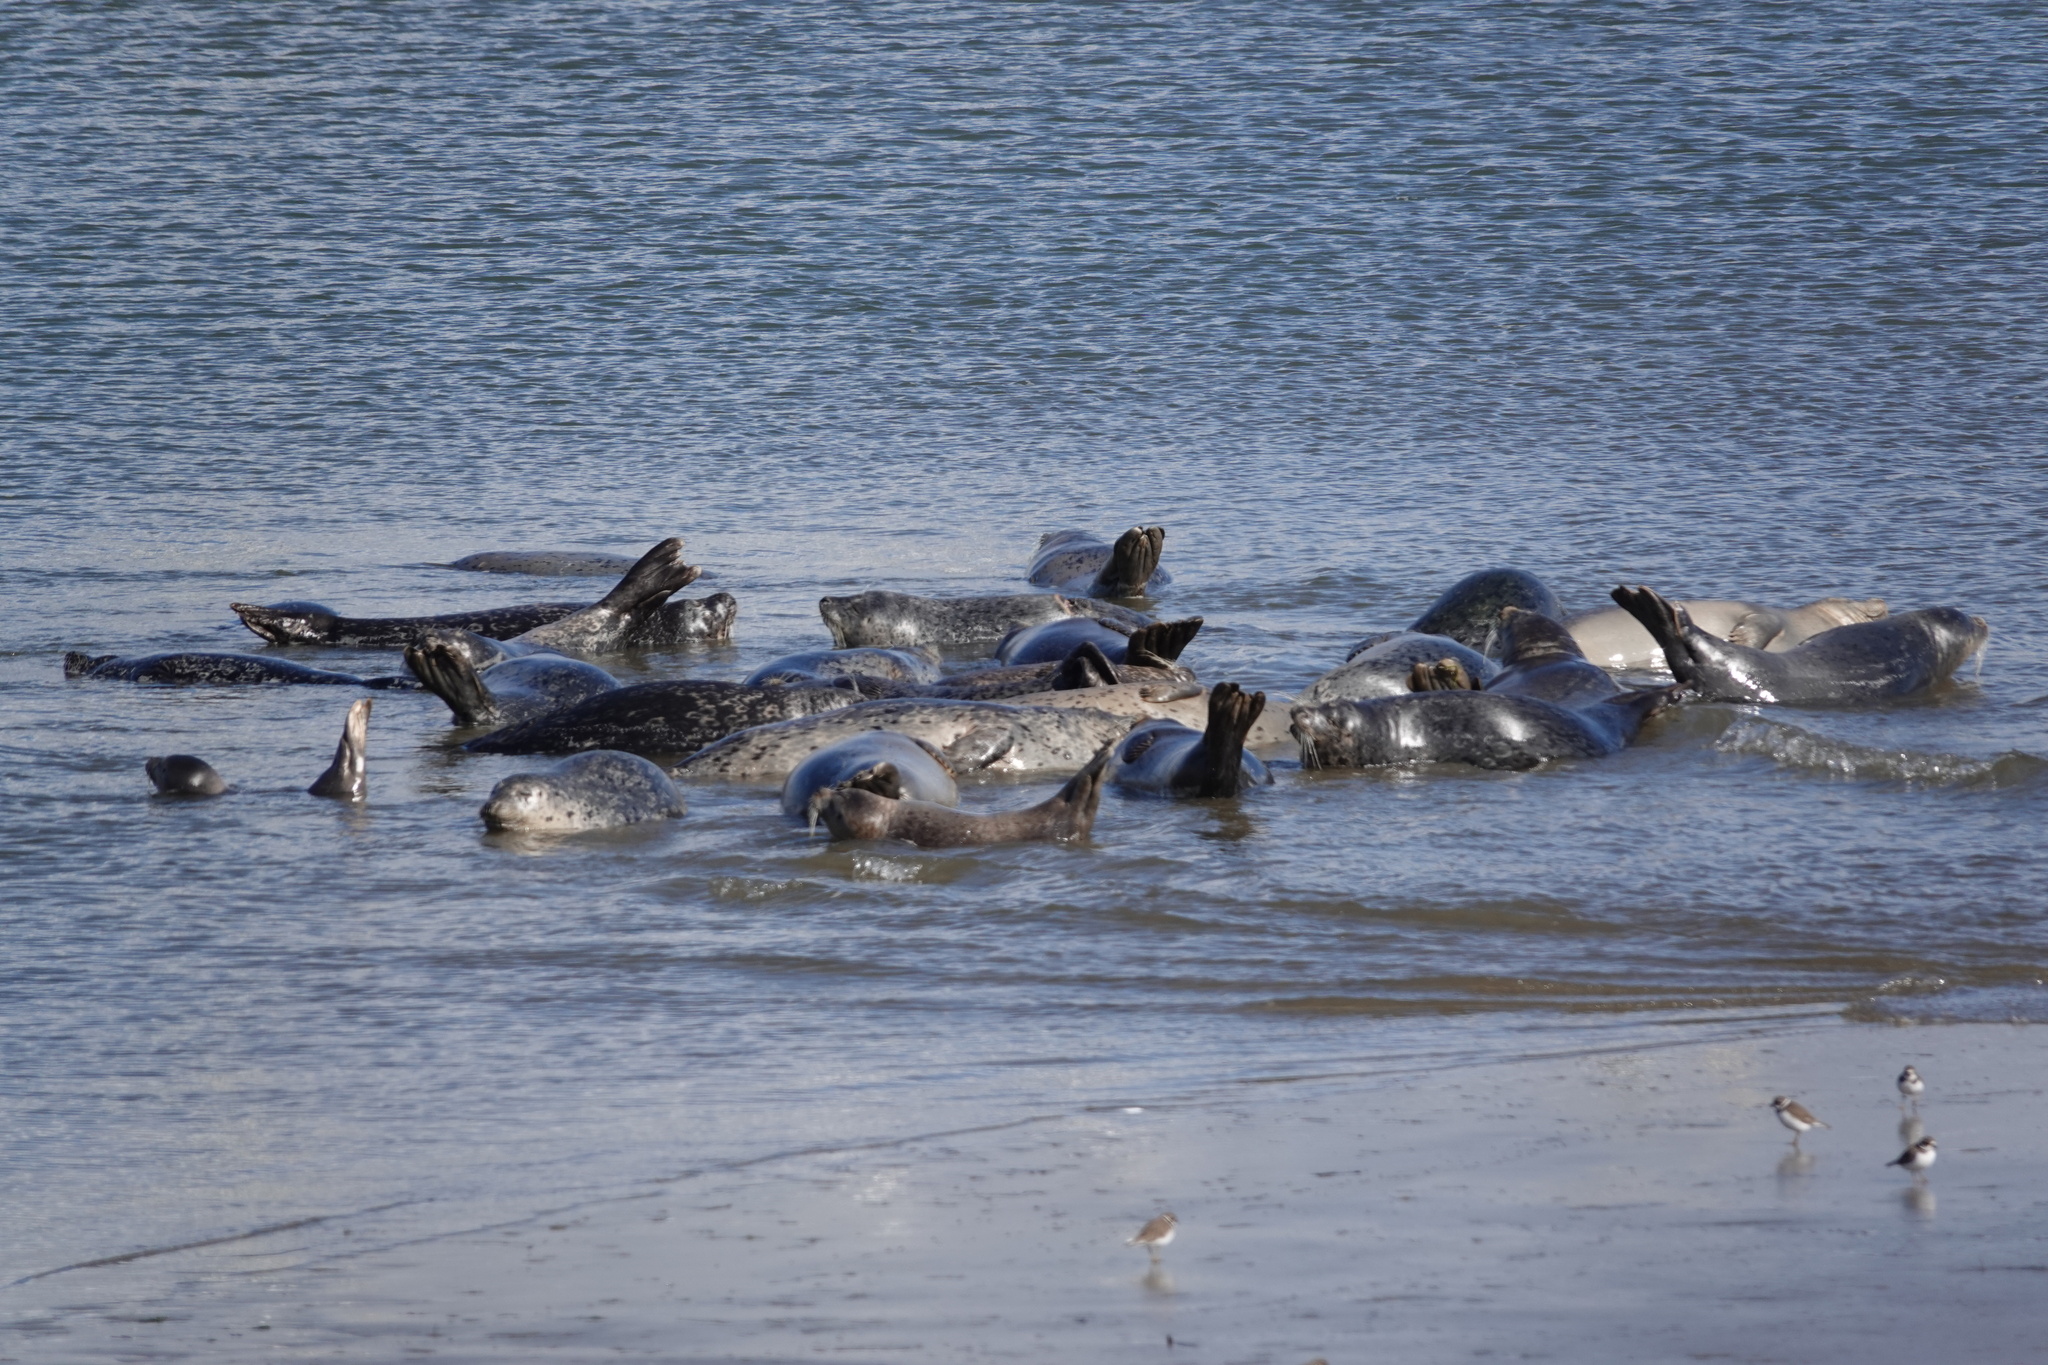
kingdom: Animalia
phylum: Chordata
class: Mammalia
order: Carnivora
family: Phocidae
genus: Phoca
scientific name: Phoca vitulina
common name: Harbor seal
